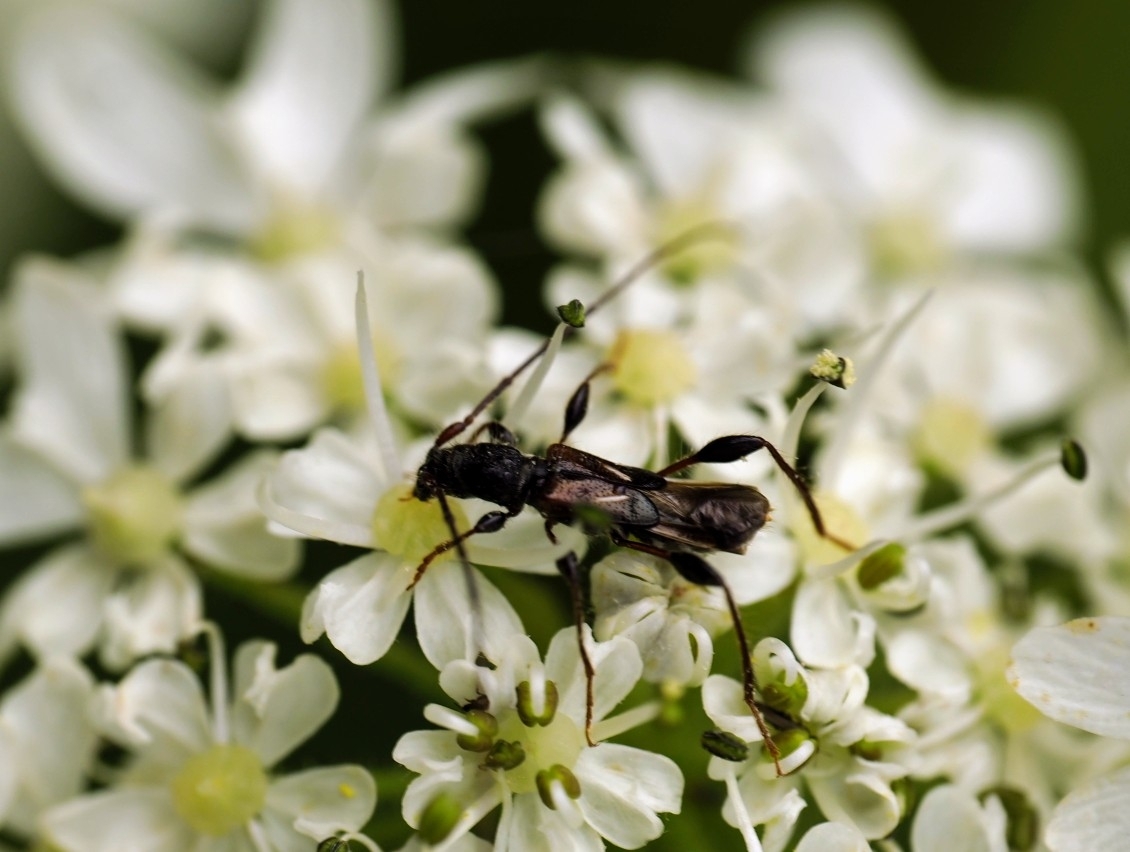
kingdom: Animalia
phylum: Arthropoda
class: Insecta
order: Coleoptera
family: Cerambycidae
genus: Molorchus
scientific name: Molorchus minor
